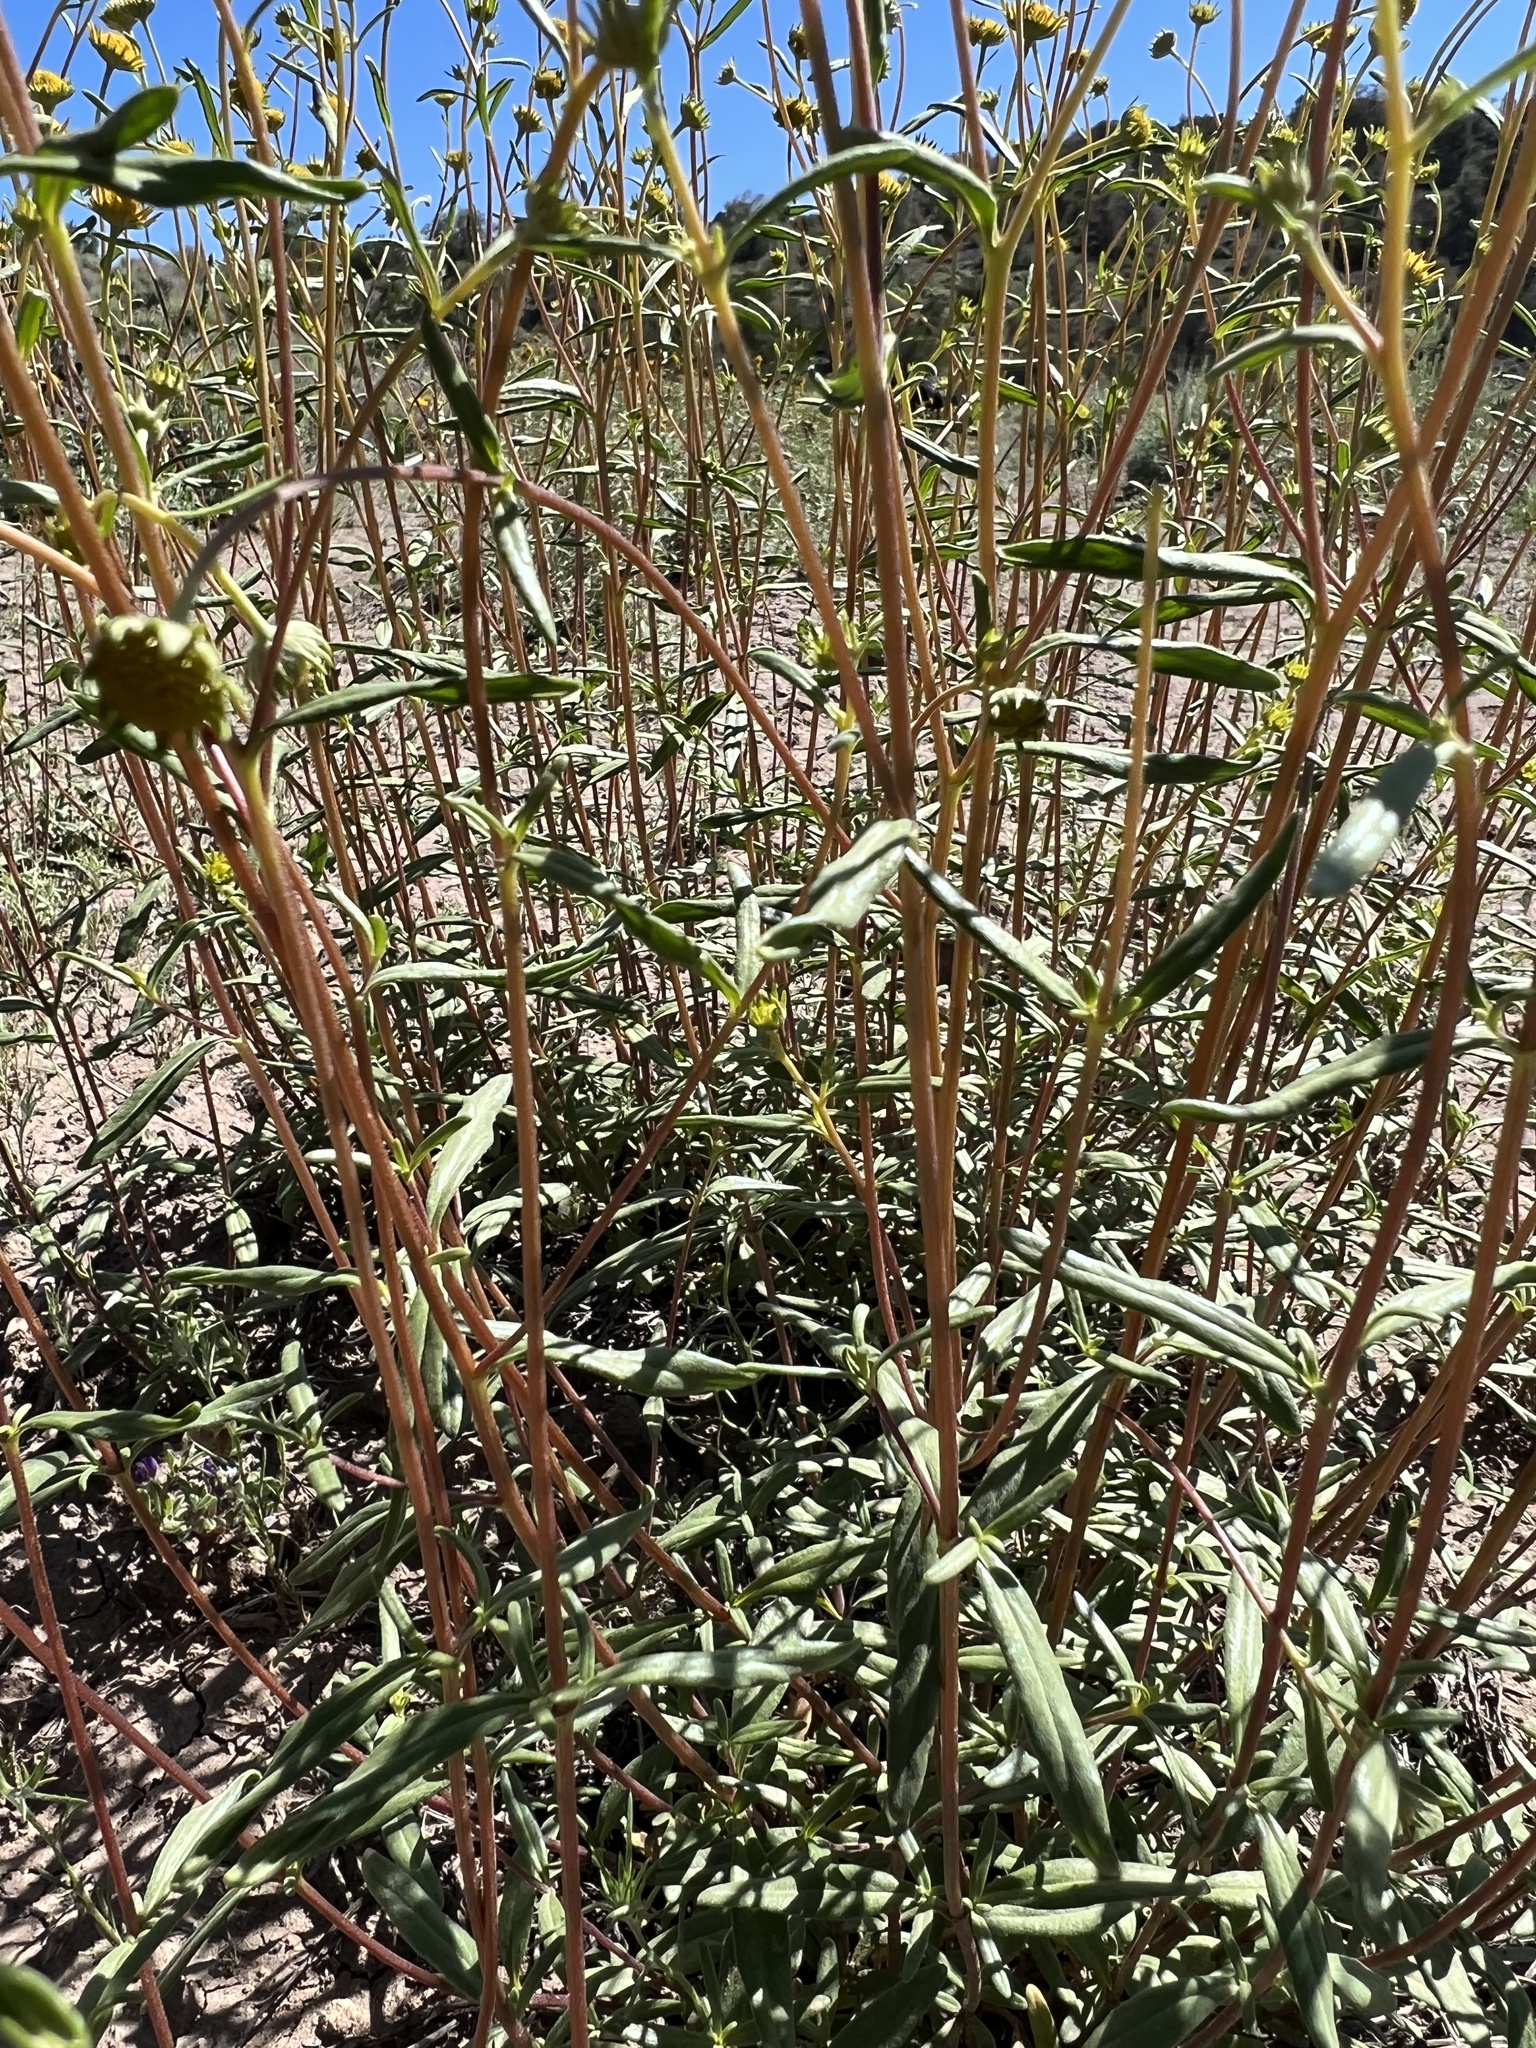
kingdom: Plantae
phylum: Tracheophyta
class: Magnoliopsida
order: Asterales
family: Asteraceae
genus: Heliomeris
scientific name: Heliomeris multiflora
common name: Showy goldeneye
